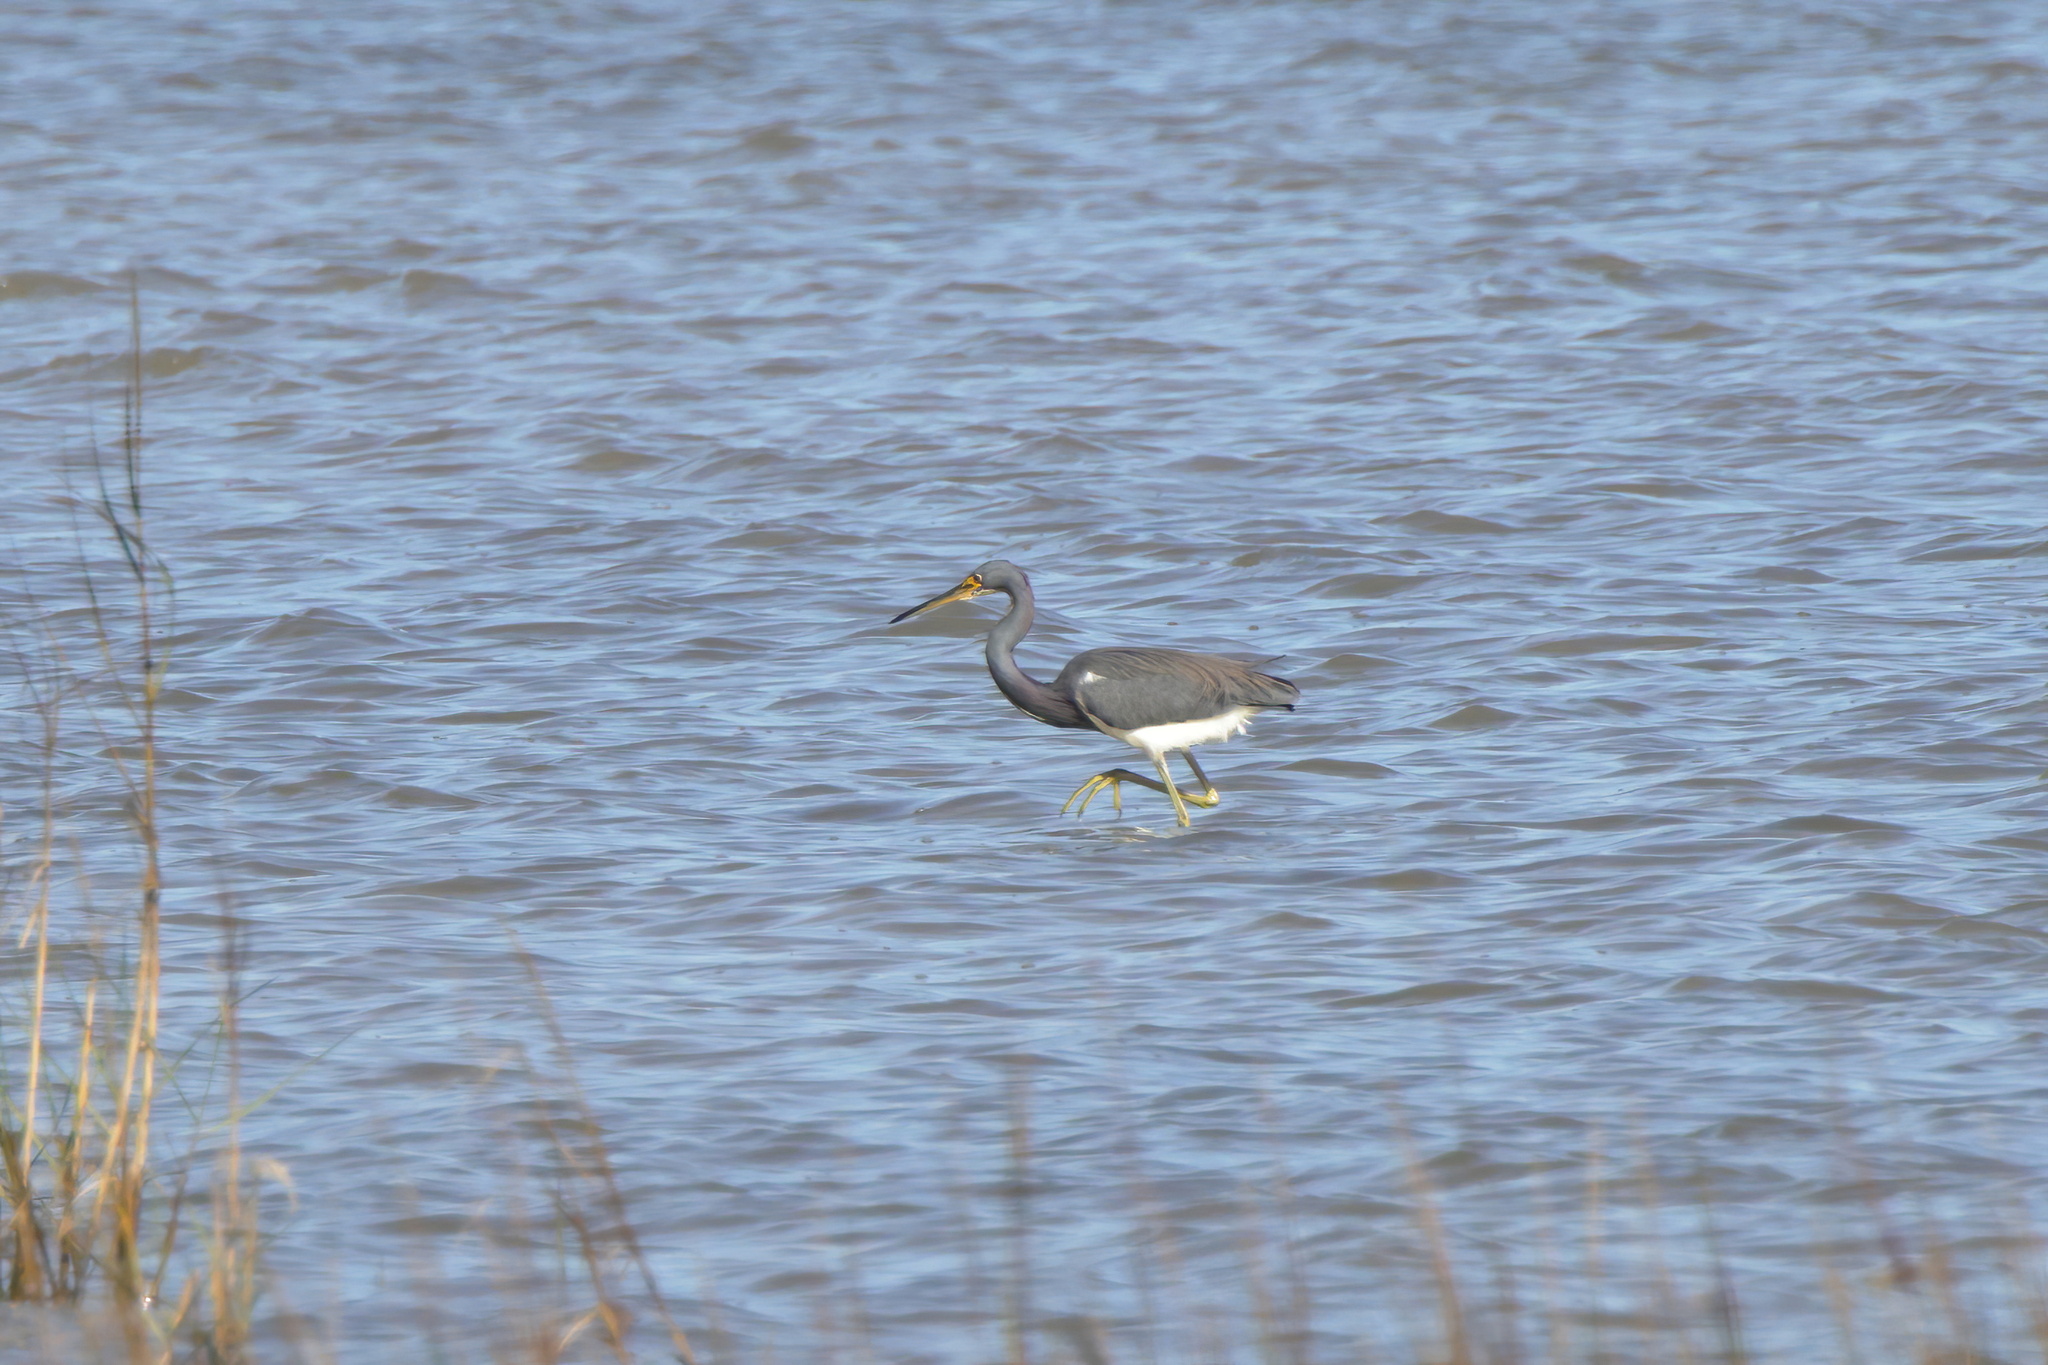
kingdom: Animalia
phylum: Chordata
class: Aves
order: Pelecaniformes
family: Ardeidae
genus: Egretta
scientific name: Egretta tricolor
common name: Tricolored heron
